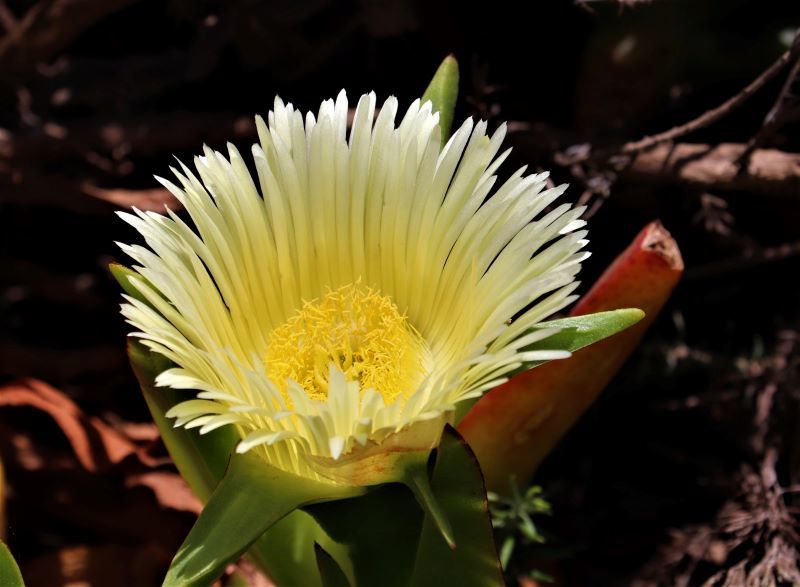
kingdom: Plantae
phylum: Tracheophyta
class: Magnoliopsida
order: Caryophyllales
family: Aizoaceae
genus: Carpobrotus
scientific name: Carpobrotus edulis
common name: Hottentot-fig
